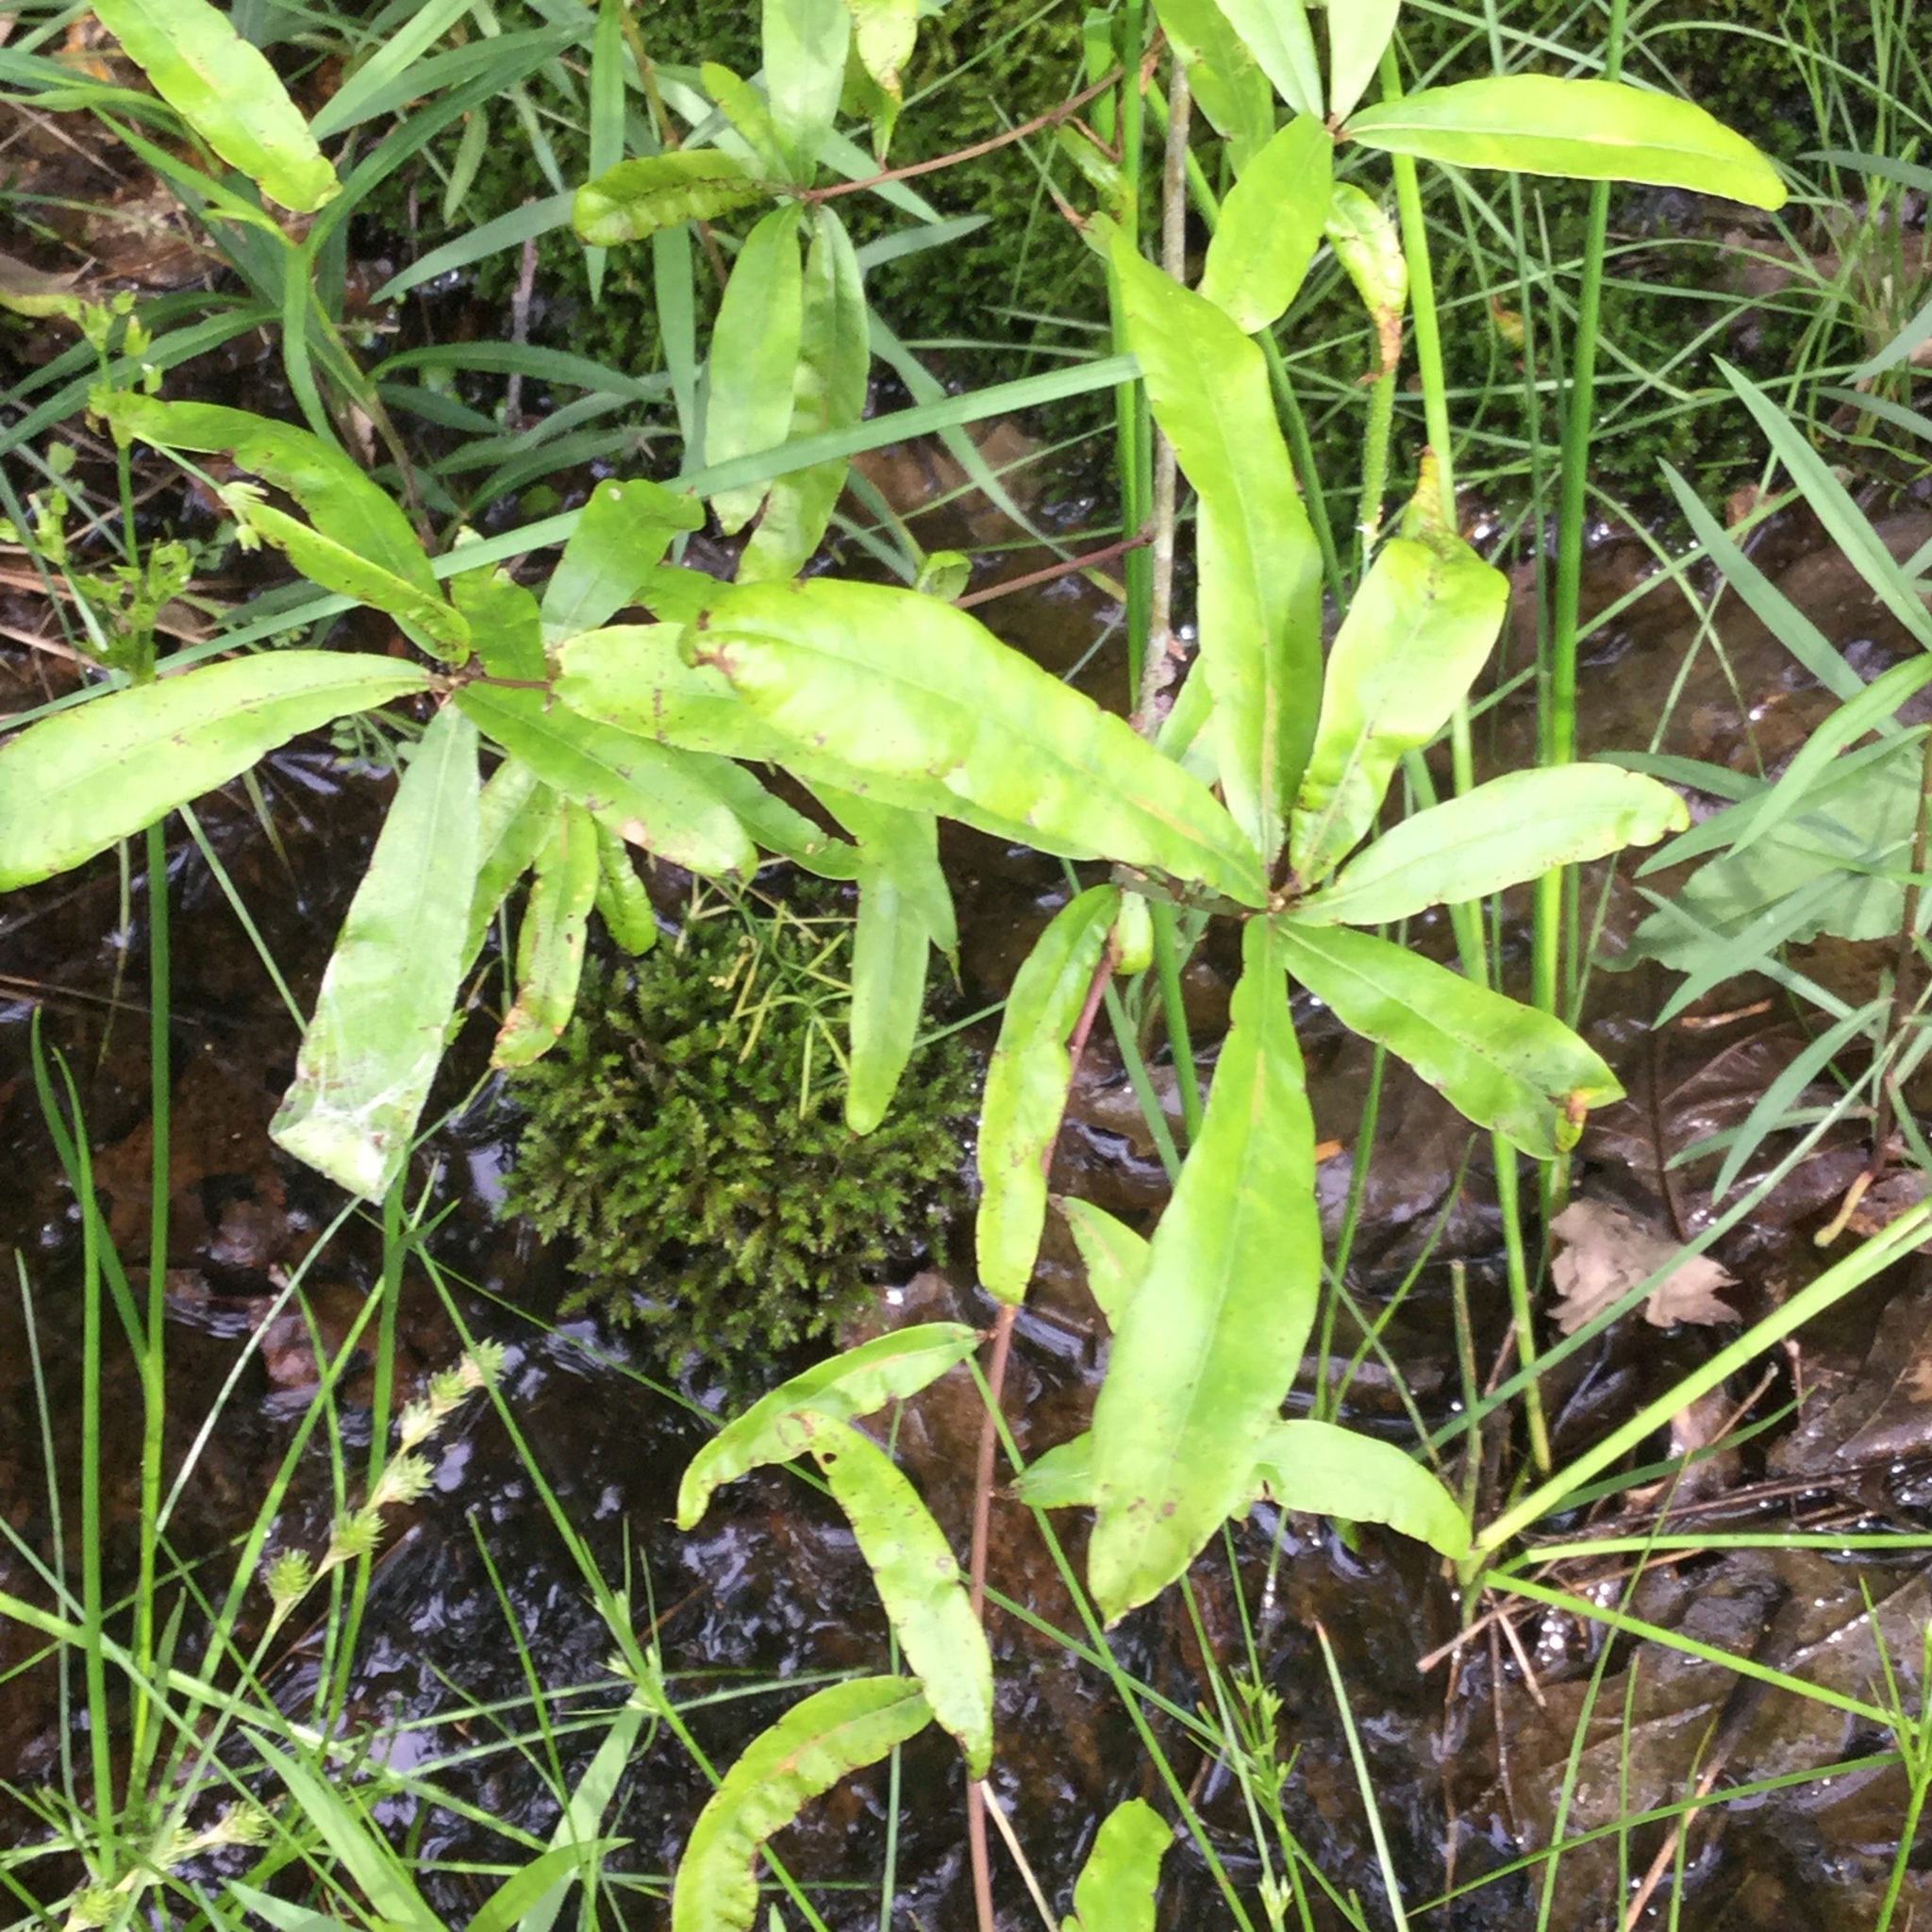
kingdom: Plantae
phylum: Tracheophyta
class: Magnoliopsida
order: Fagales
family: Fagaceae
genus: Quercus
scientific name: Quercus phellos
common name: Willow oak
